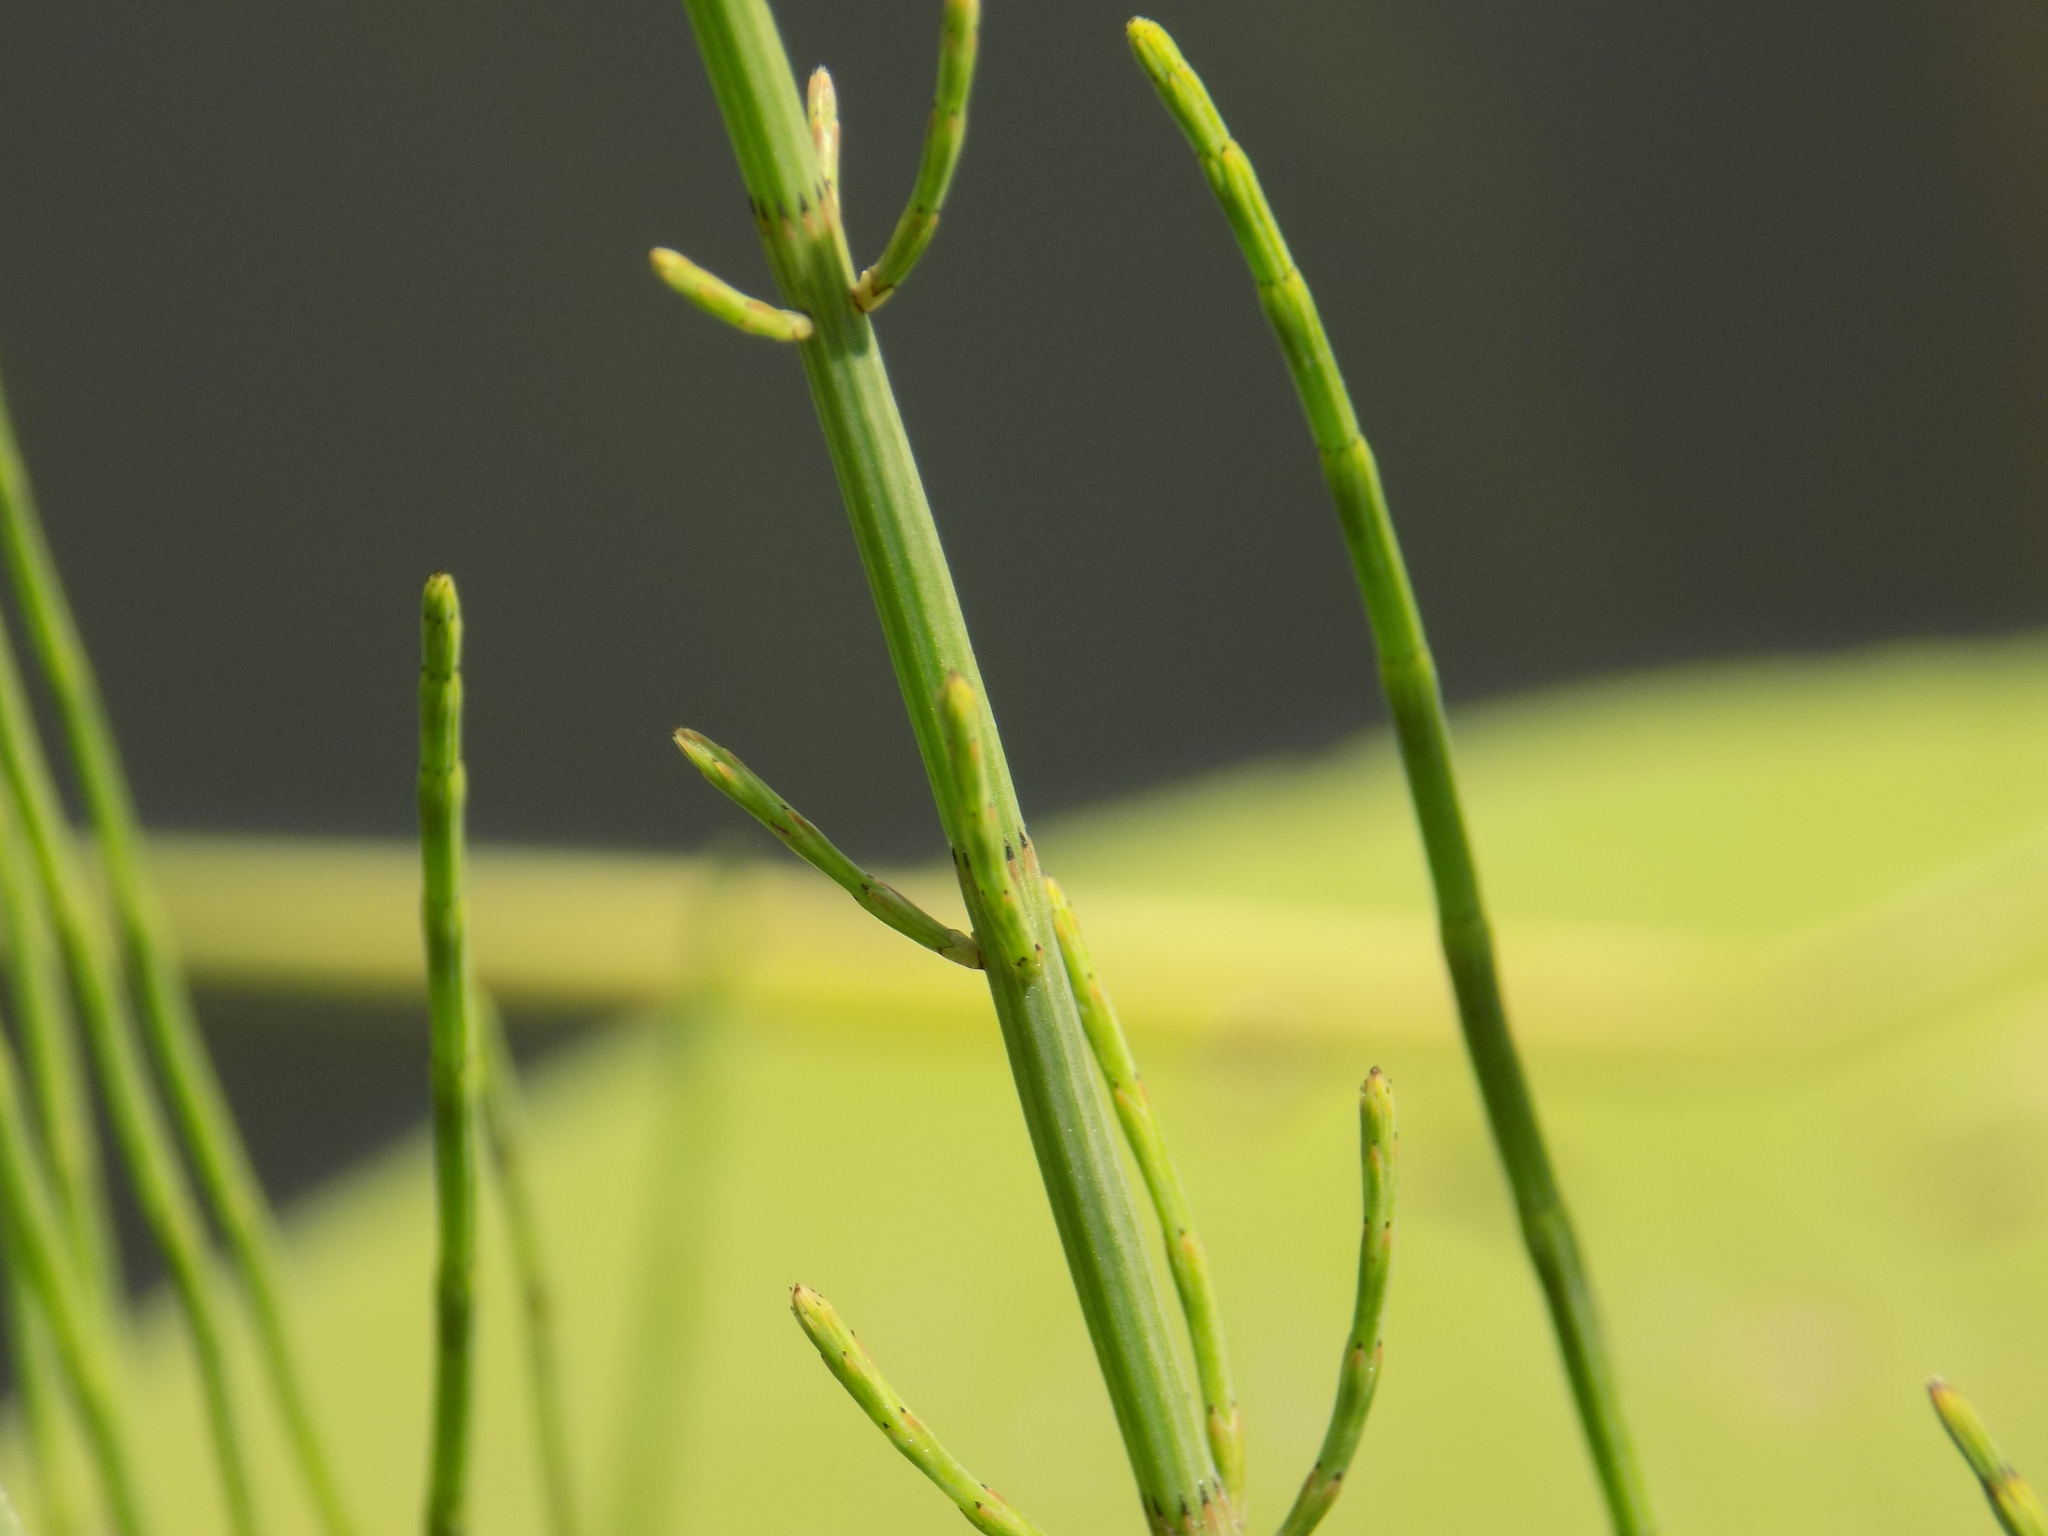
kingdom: Plantae
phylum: Tracheophyta
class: Polypodiopsida
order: Equisetales
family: Equisetaceae
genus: Equisetum
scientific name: Equisetum palustre
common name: Marsh horsetail
